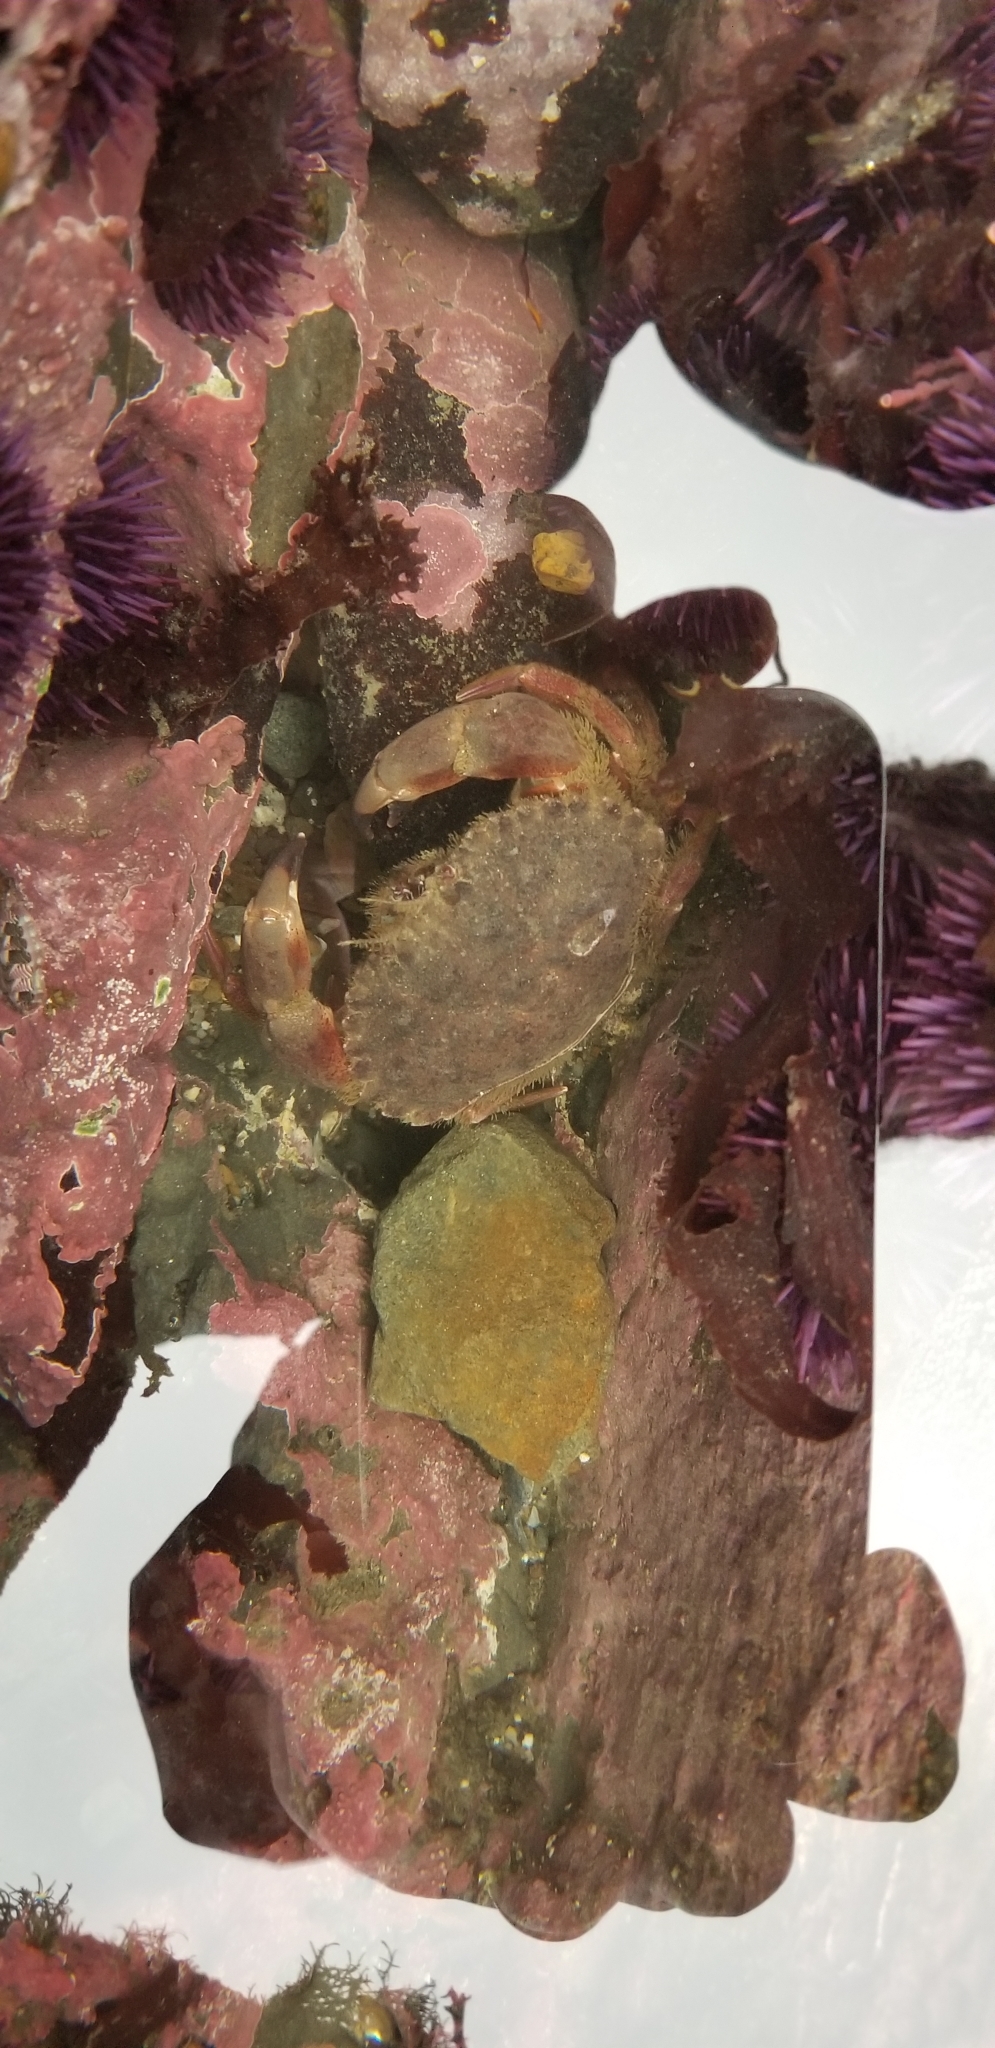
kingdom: Animalia
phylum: Arthropoda
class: Malacostraca
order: Decapoda
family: Cancridae
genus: Romaleon
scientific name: Romaleon antennarium
